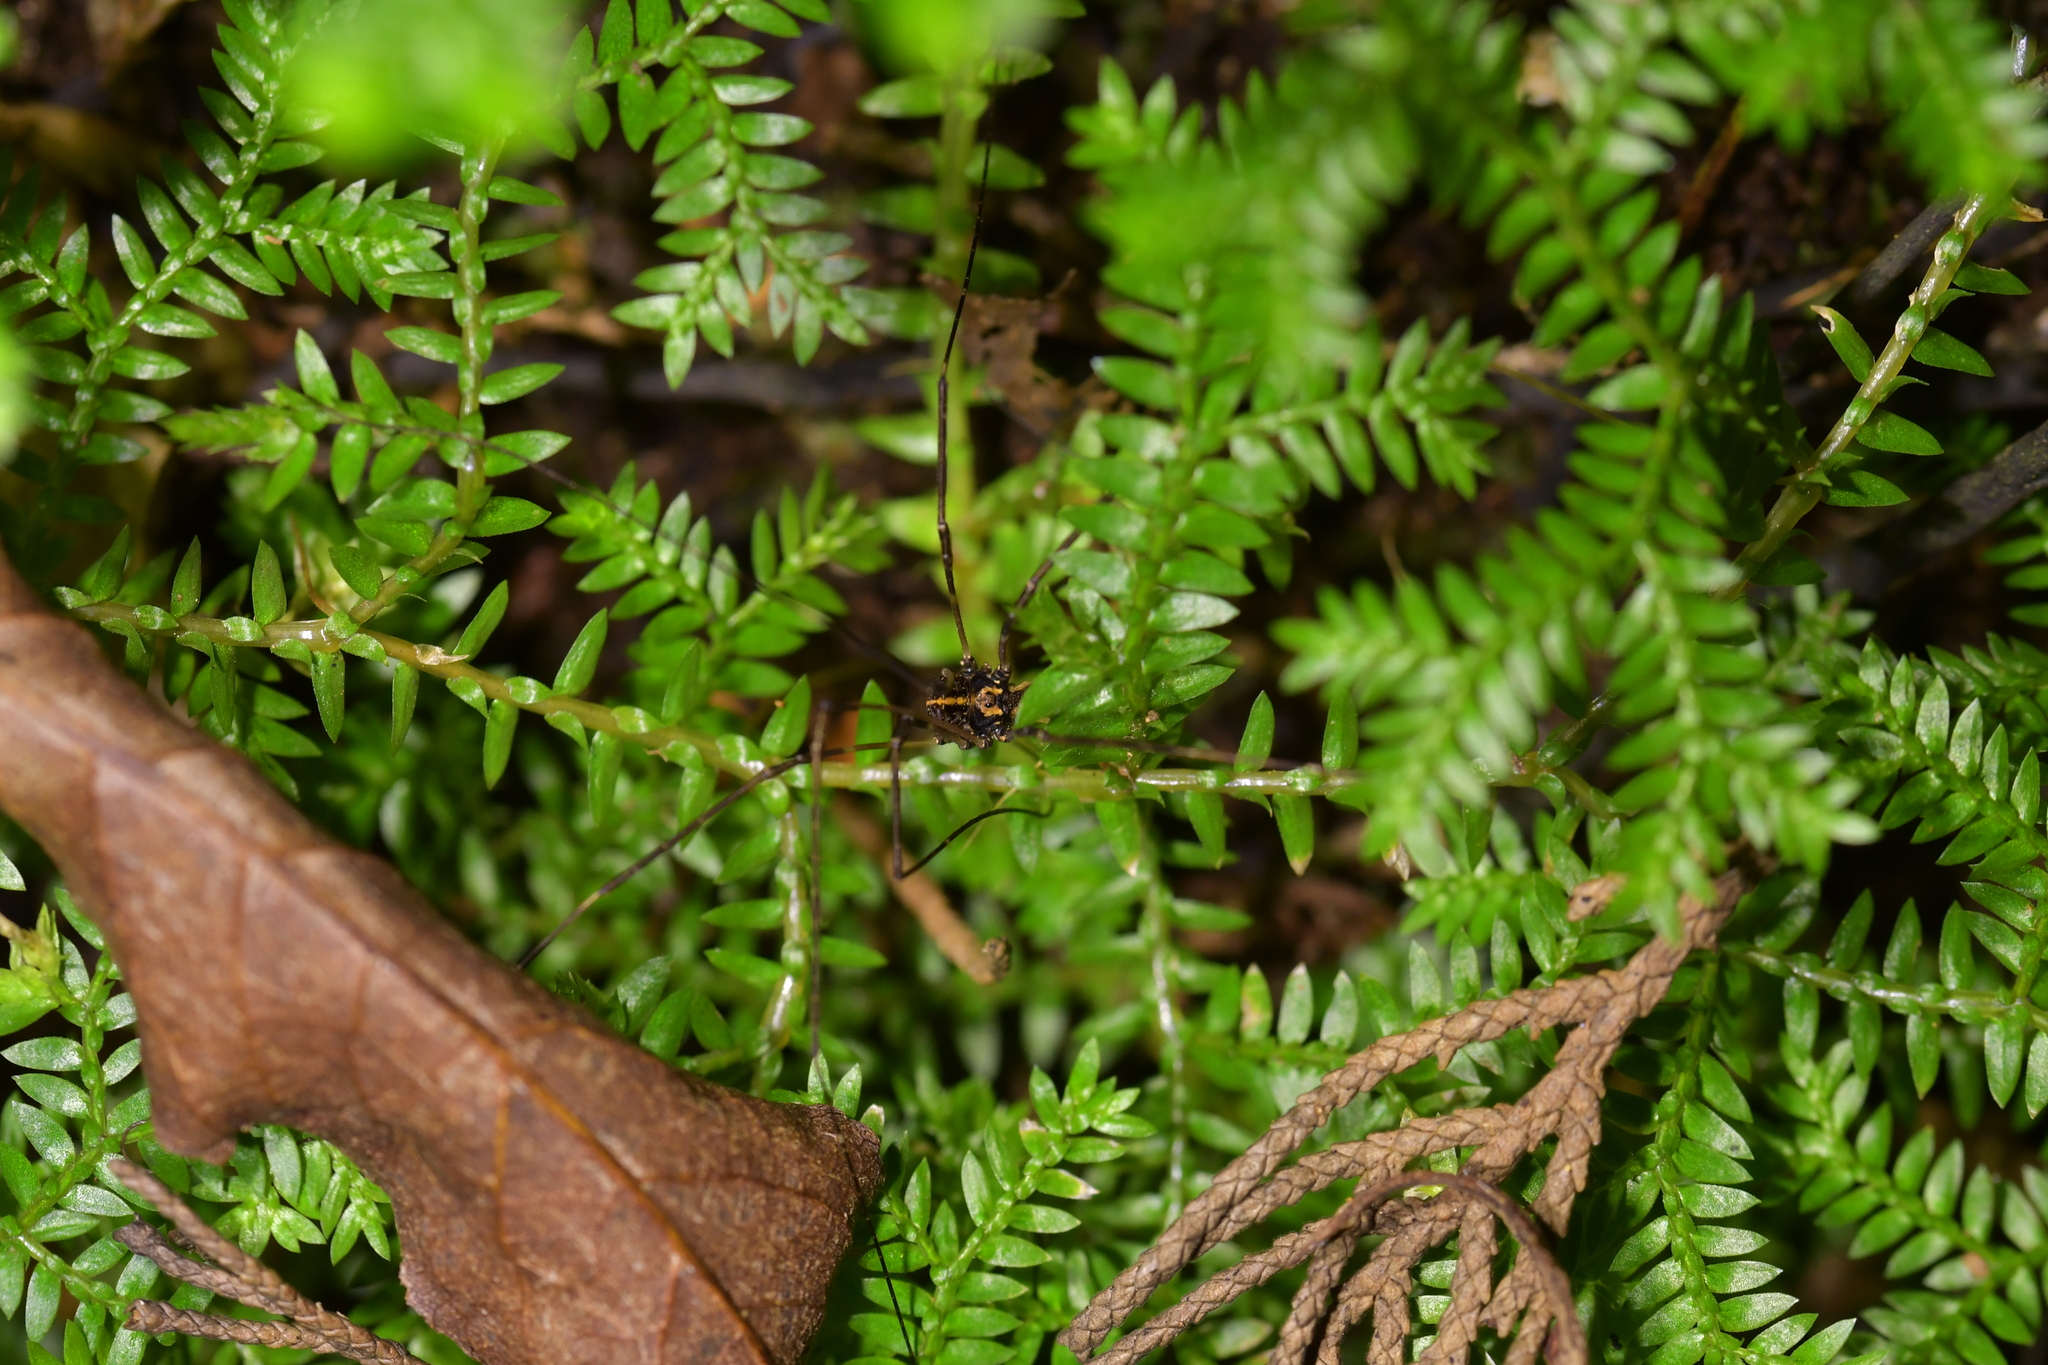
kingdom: Animalia
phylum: Arthropoda
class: Arachnida
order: Opiliones
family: Neopilionidae
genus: Forsteropsalis
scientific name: Forsteropsalis pureora
